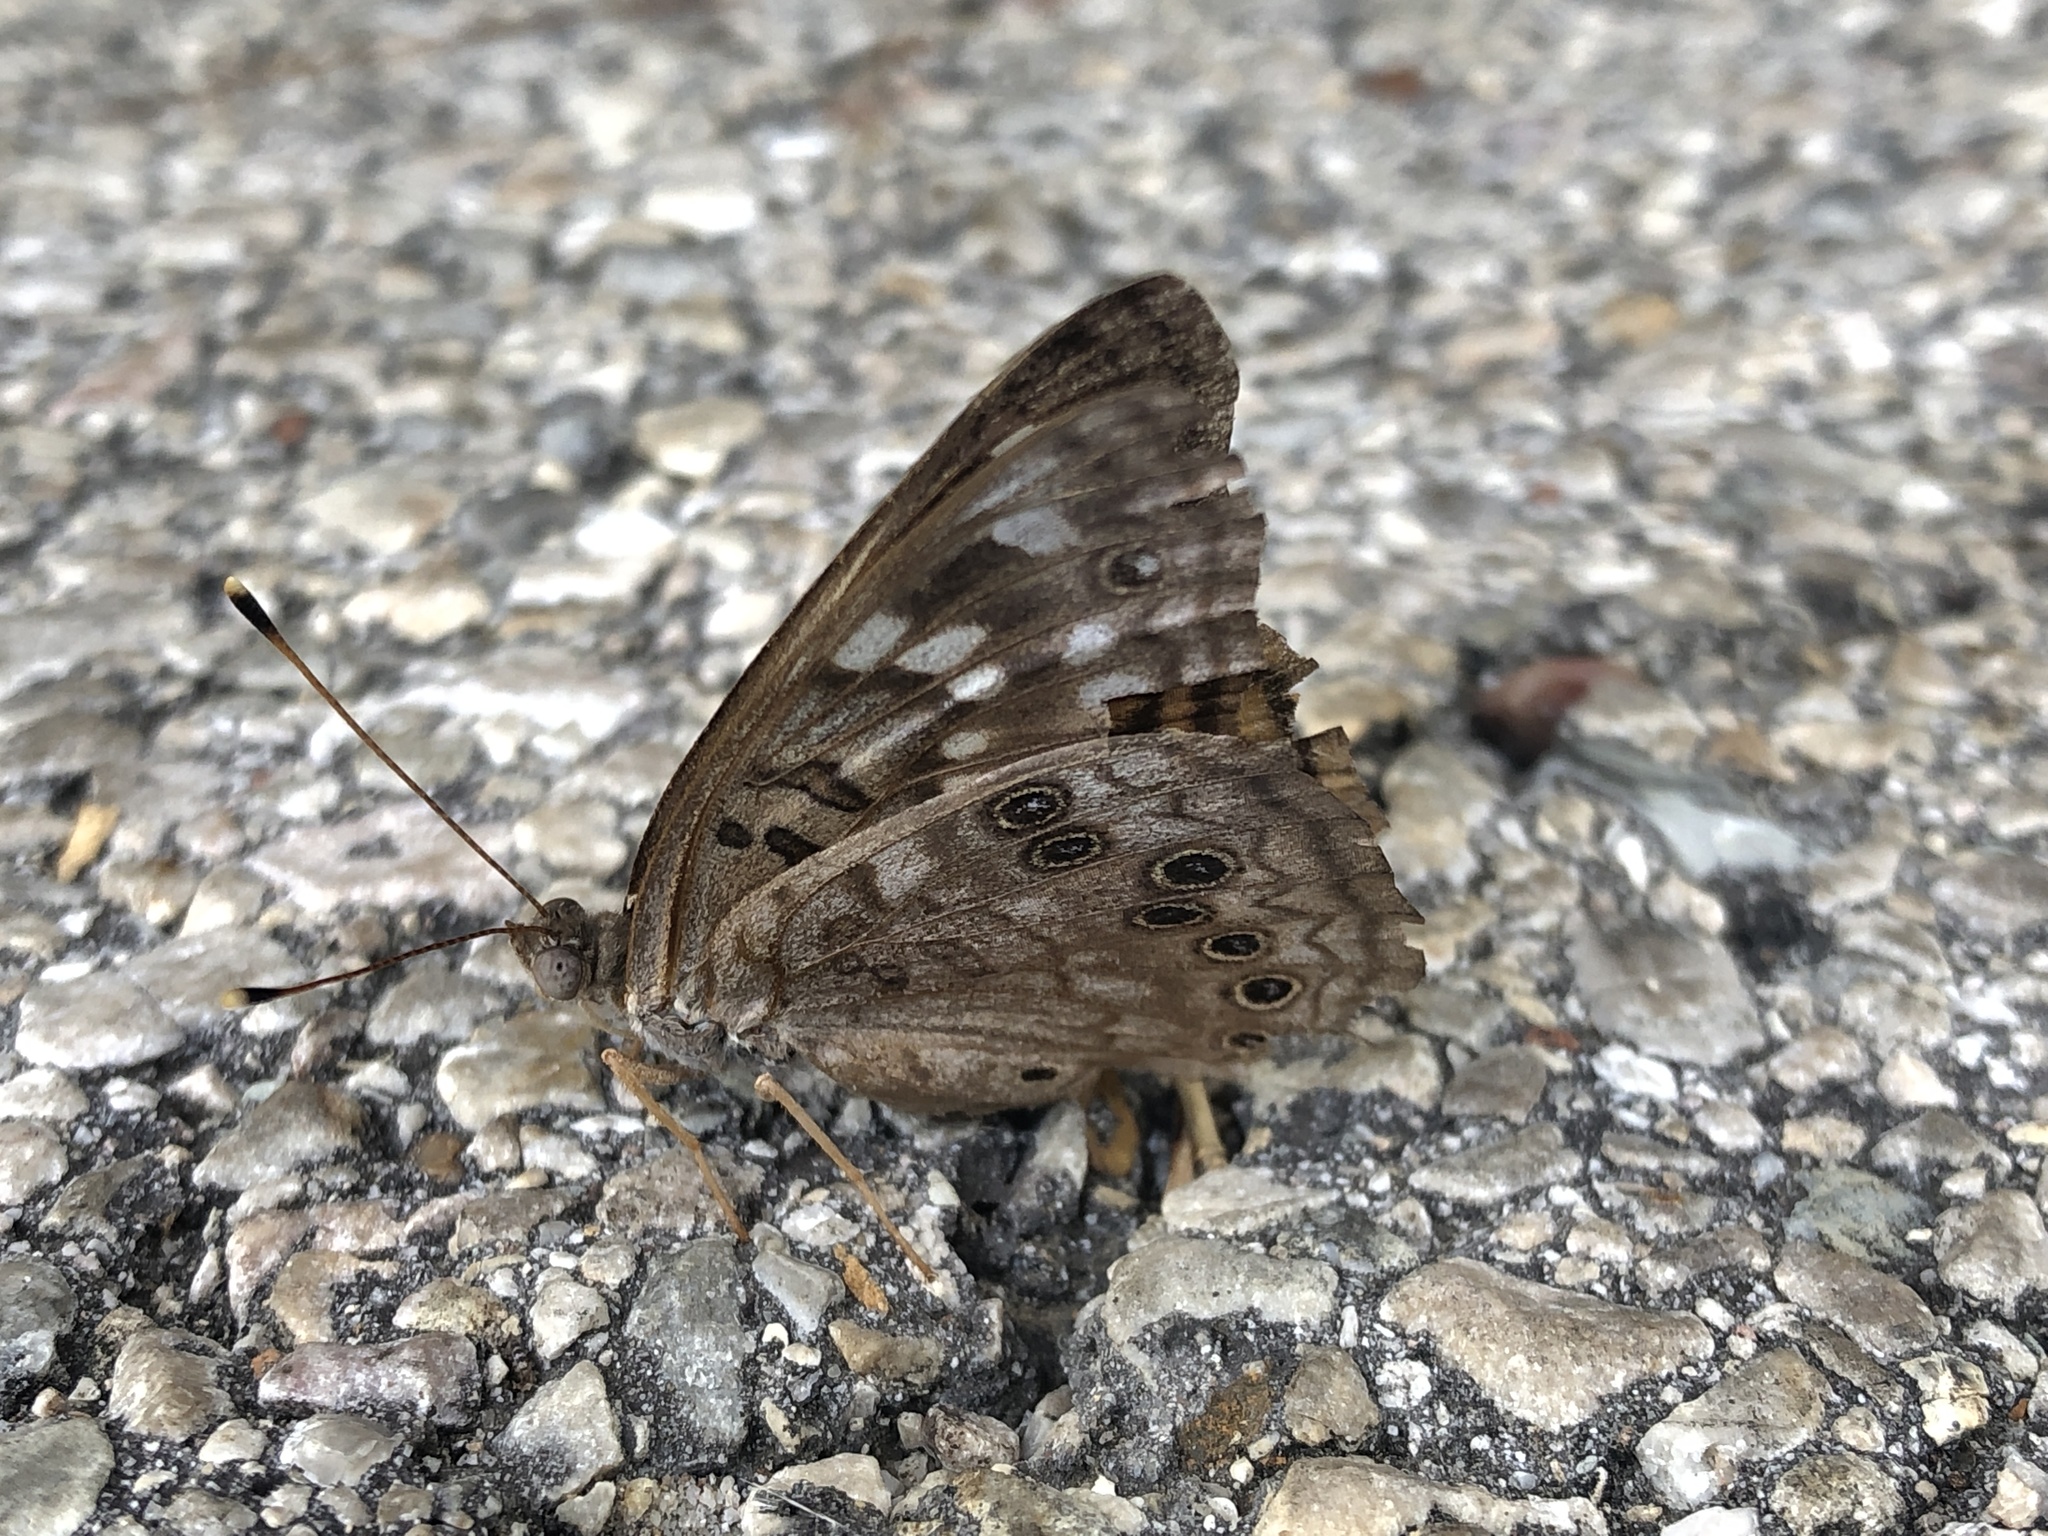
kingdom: Animalia
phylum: Arthropoda
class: Insecta
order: Lepidoptera
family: Nymphalidae
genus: Asterocampa
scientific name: Asterocampa celtis
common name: Hackberry emperor
